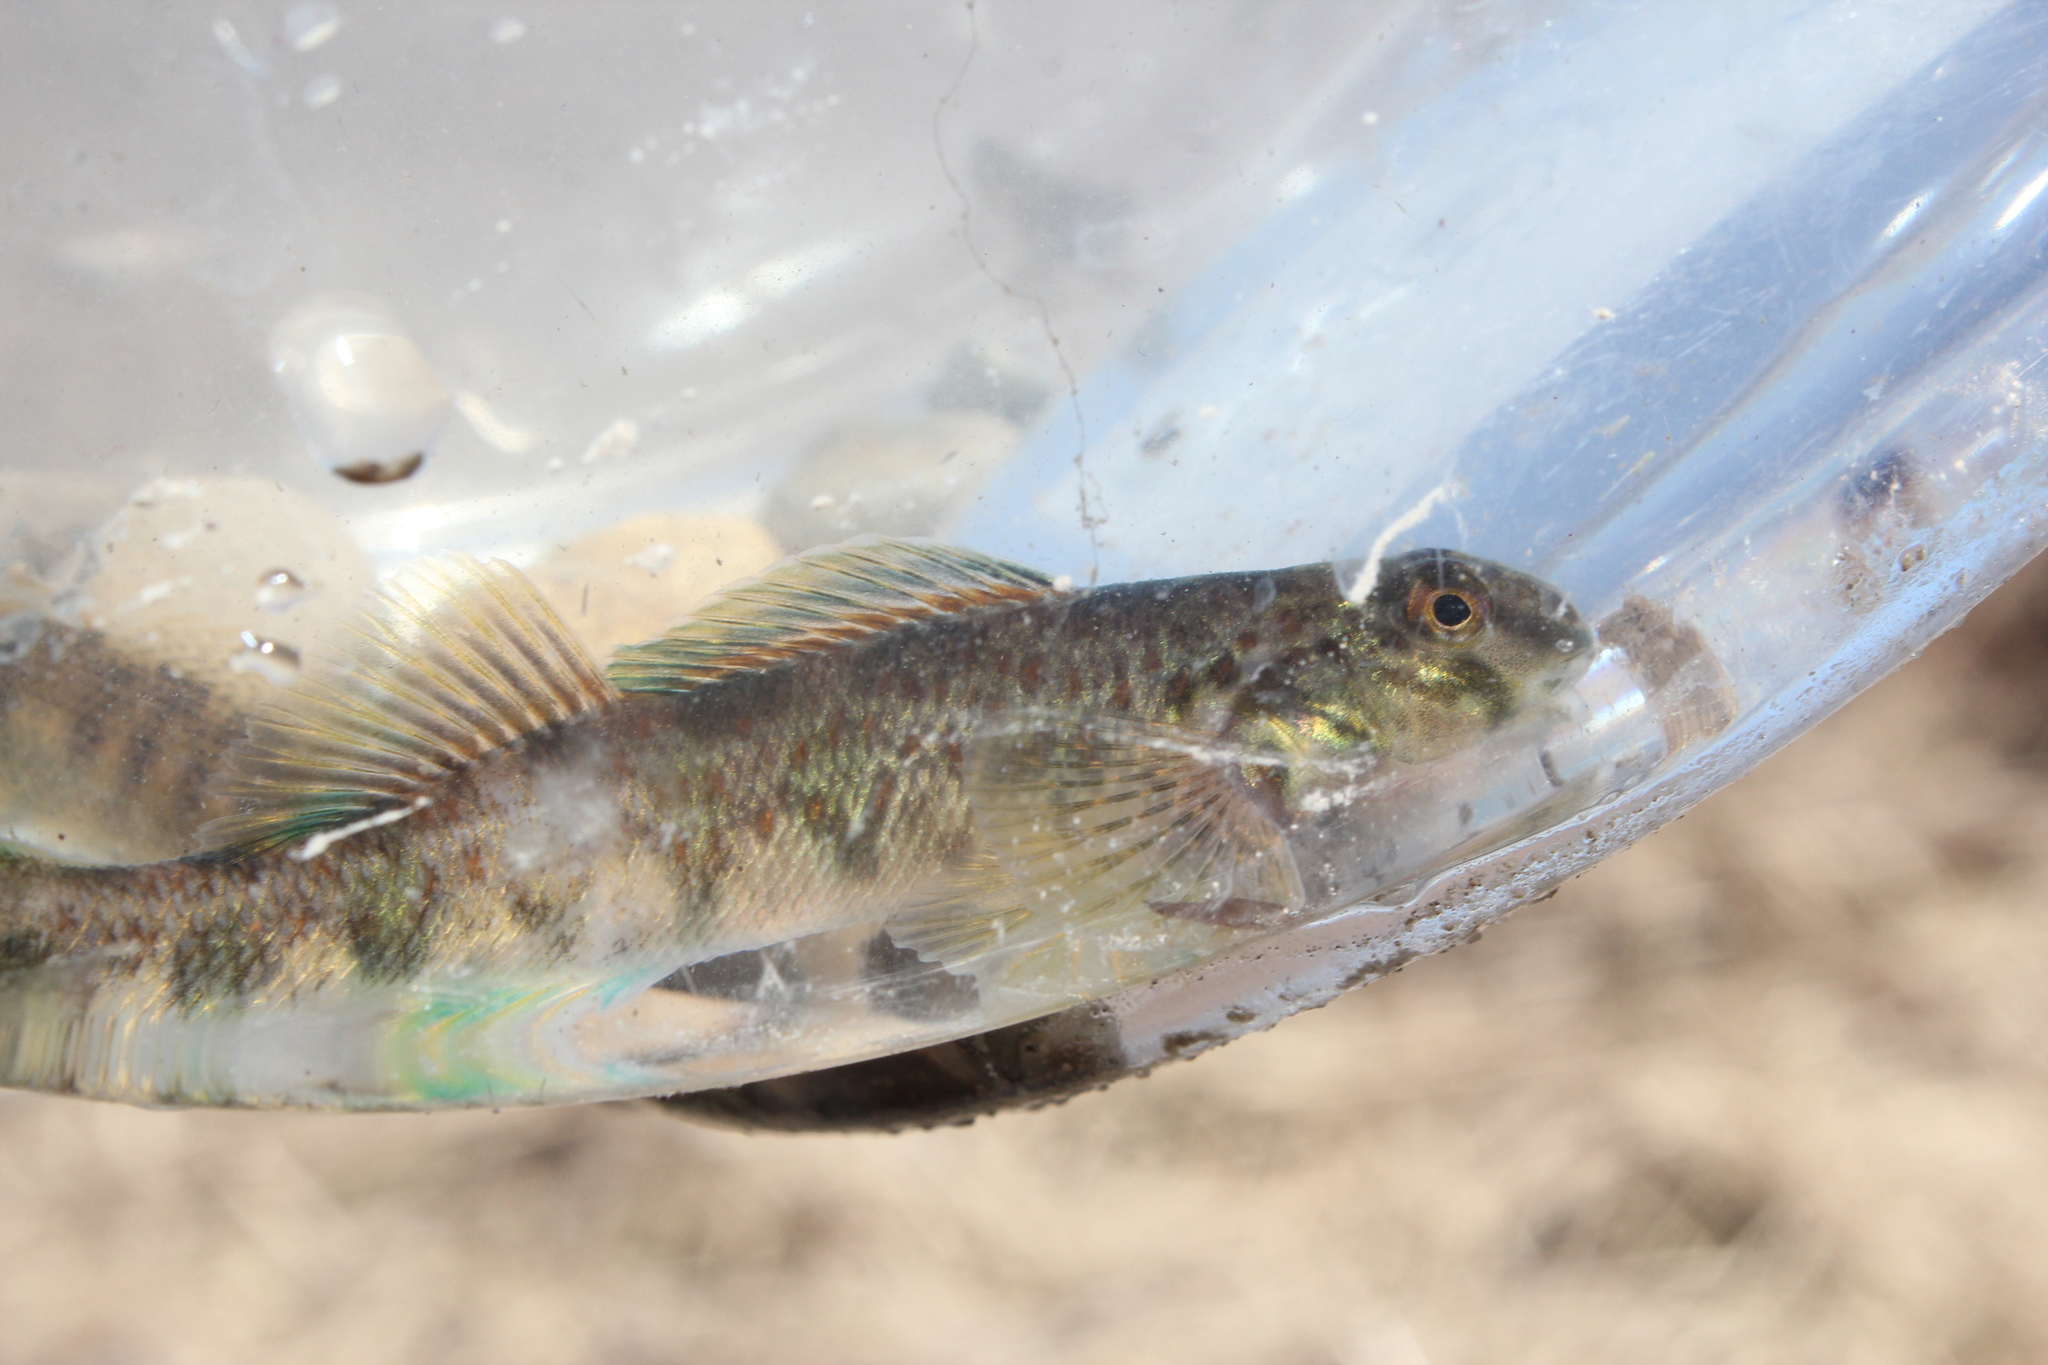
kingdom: Animalia
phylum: Chordata
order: Perciformes
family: Percidae
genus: Etheostoma
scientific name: Etheostoma blennioides
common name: Greenside darter
